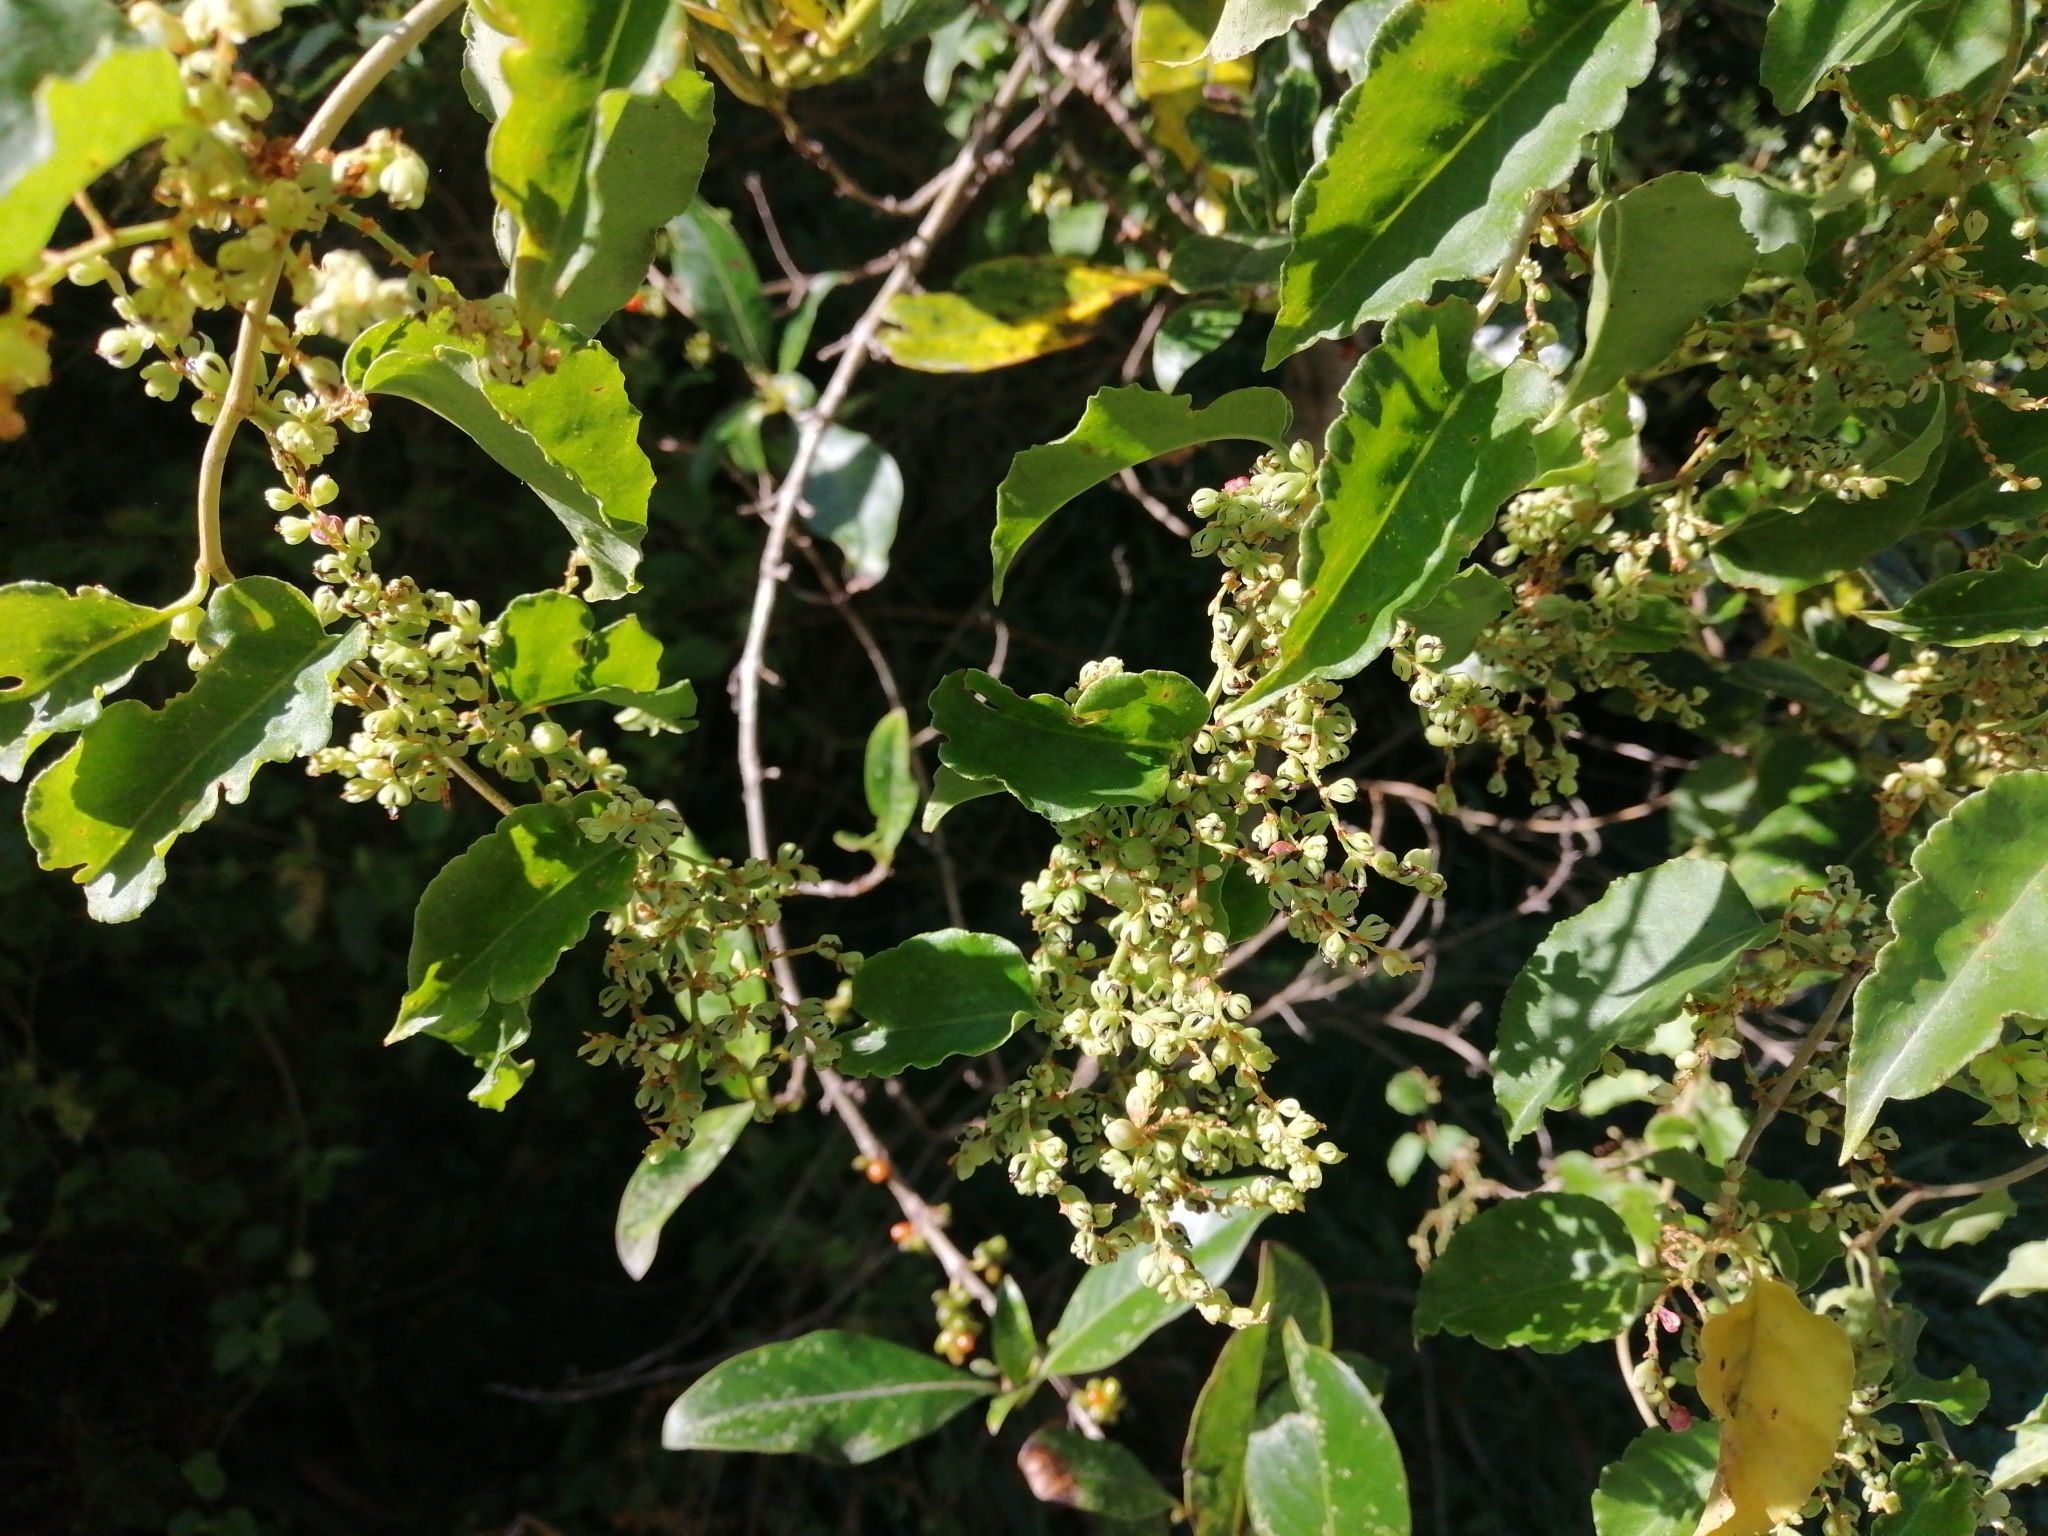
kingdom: Plantae
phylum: Tracheophyta
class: Magnoliopsida
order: Caryophyllales
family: Polygonaceae
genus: Muehlenbeckia
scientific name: Muehlenbeckia australis
